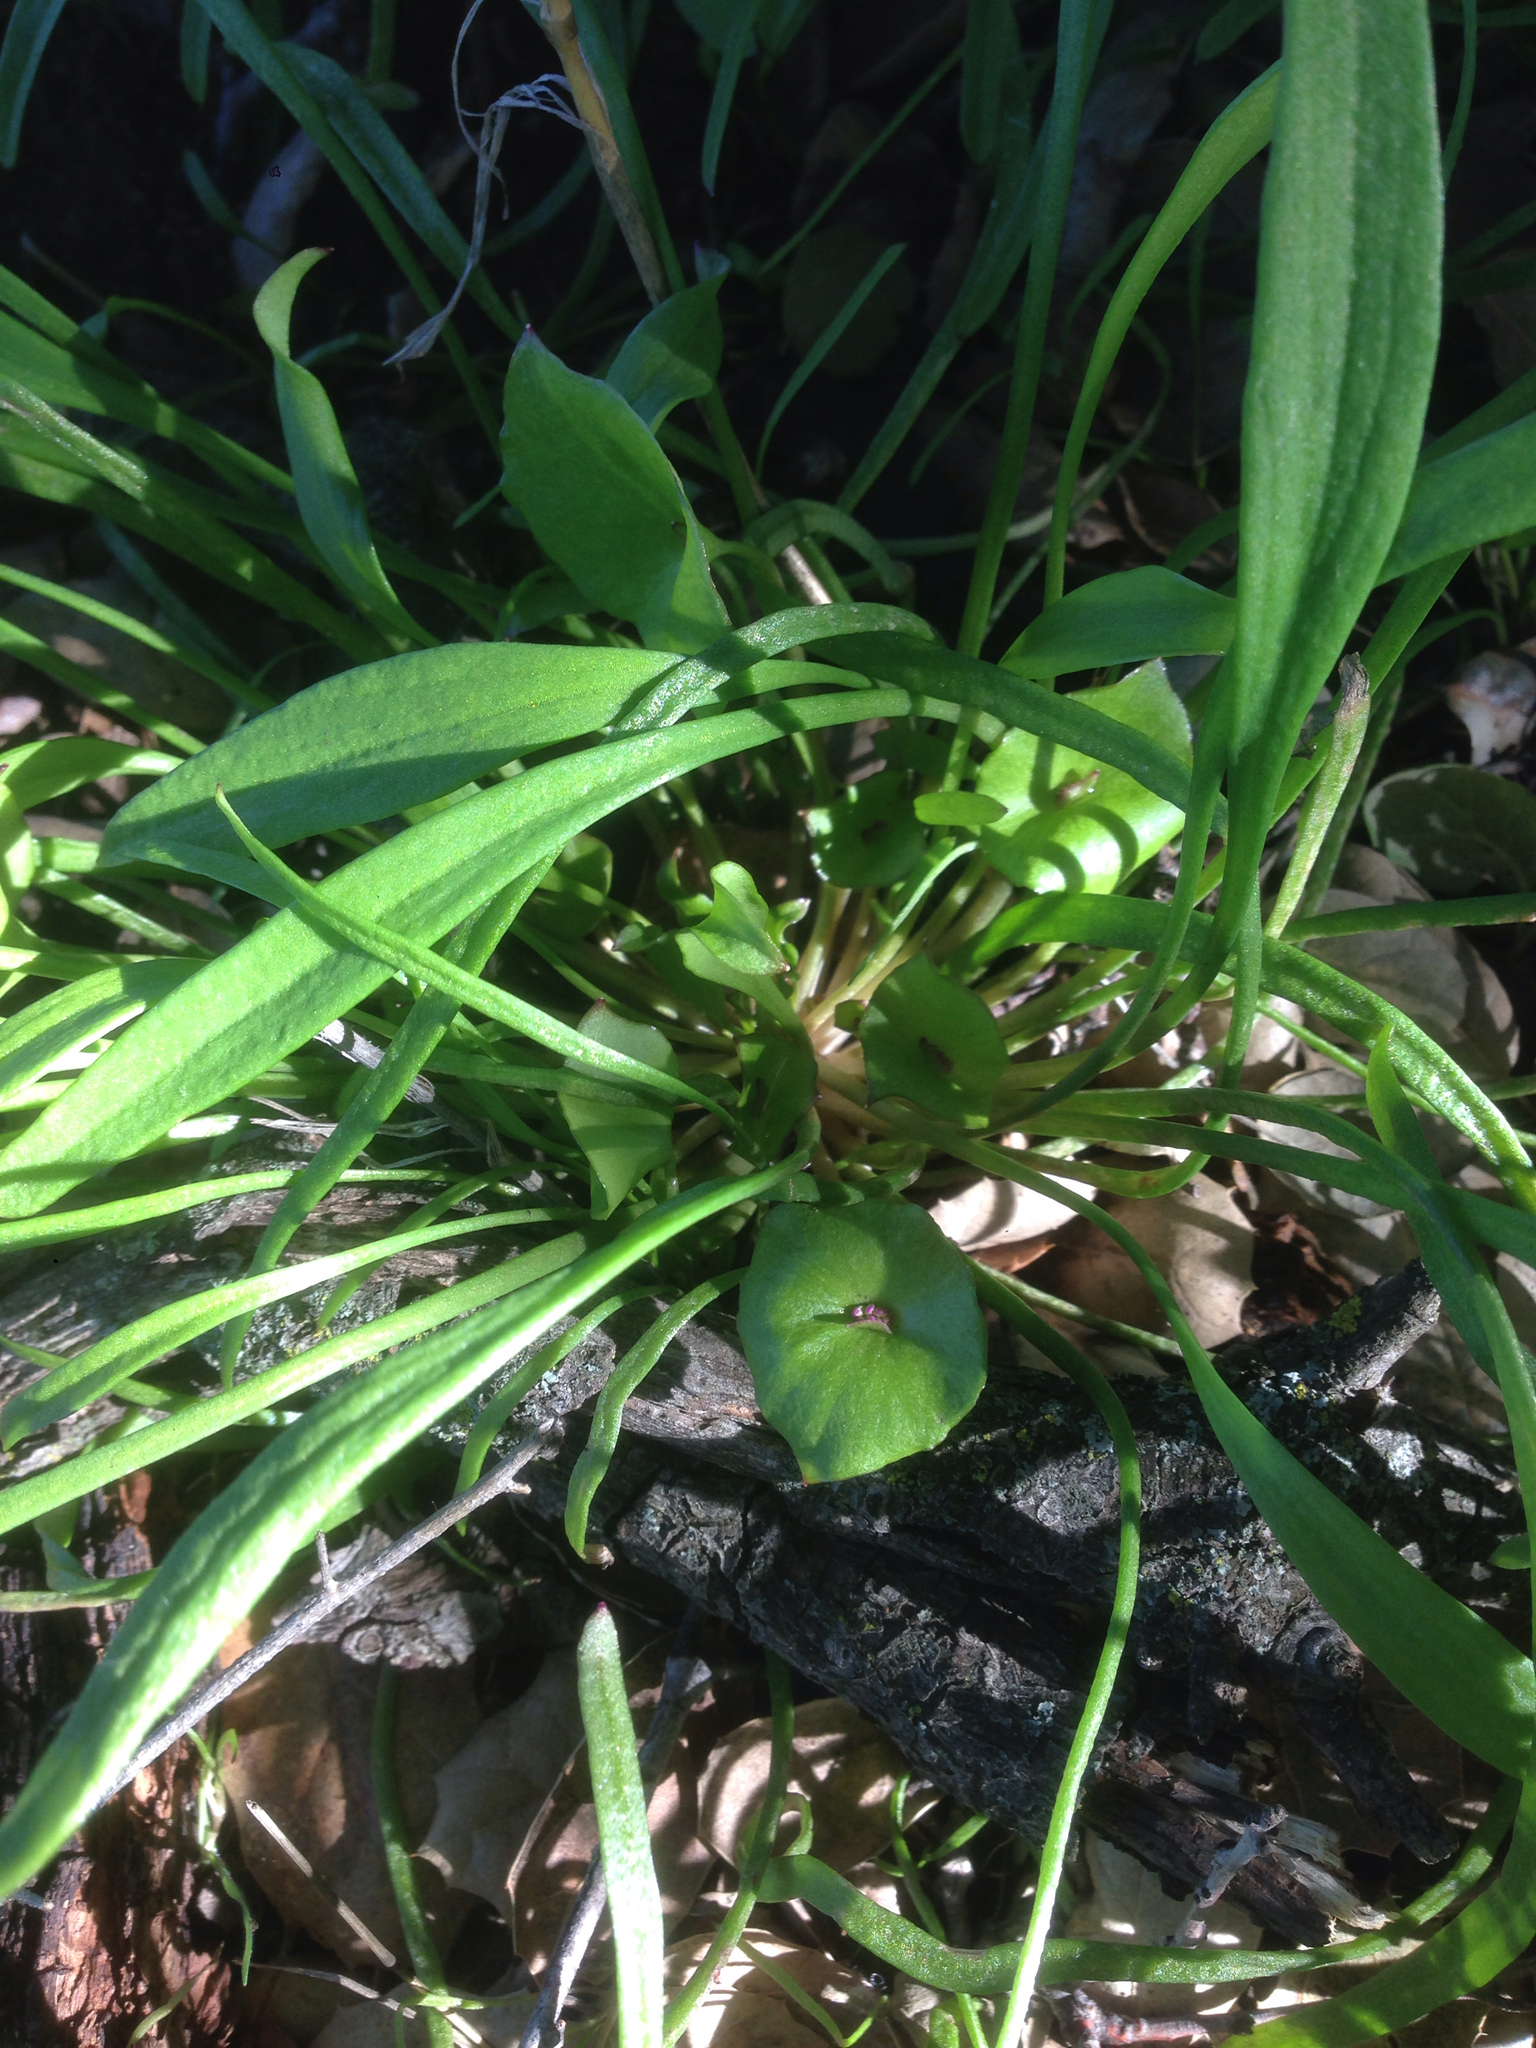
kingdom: Plantae
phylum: Tracheophyta
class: Magnoliopsida
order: Caryophyllales
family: Montiaceae
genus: Claytonia
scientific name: Claytonia parviflora
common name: Indian-lettuce
